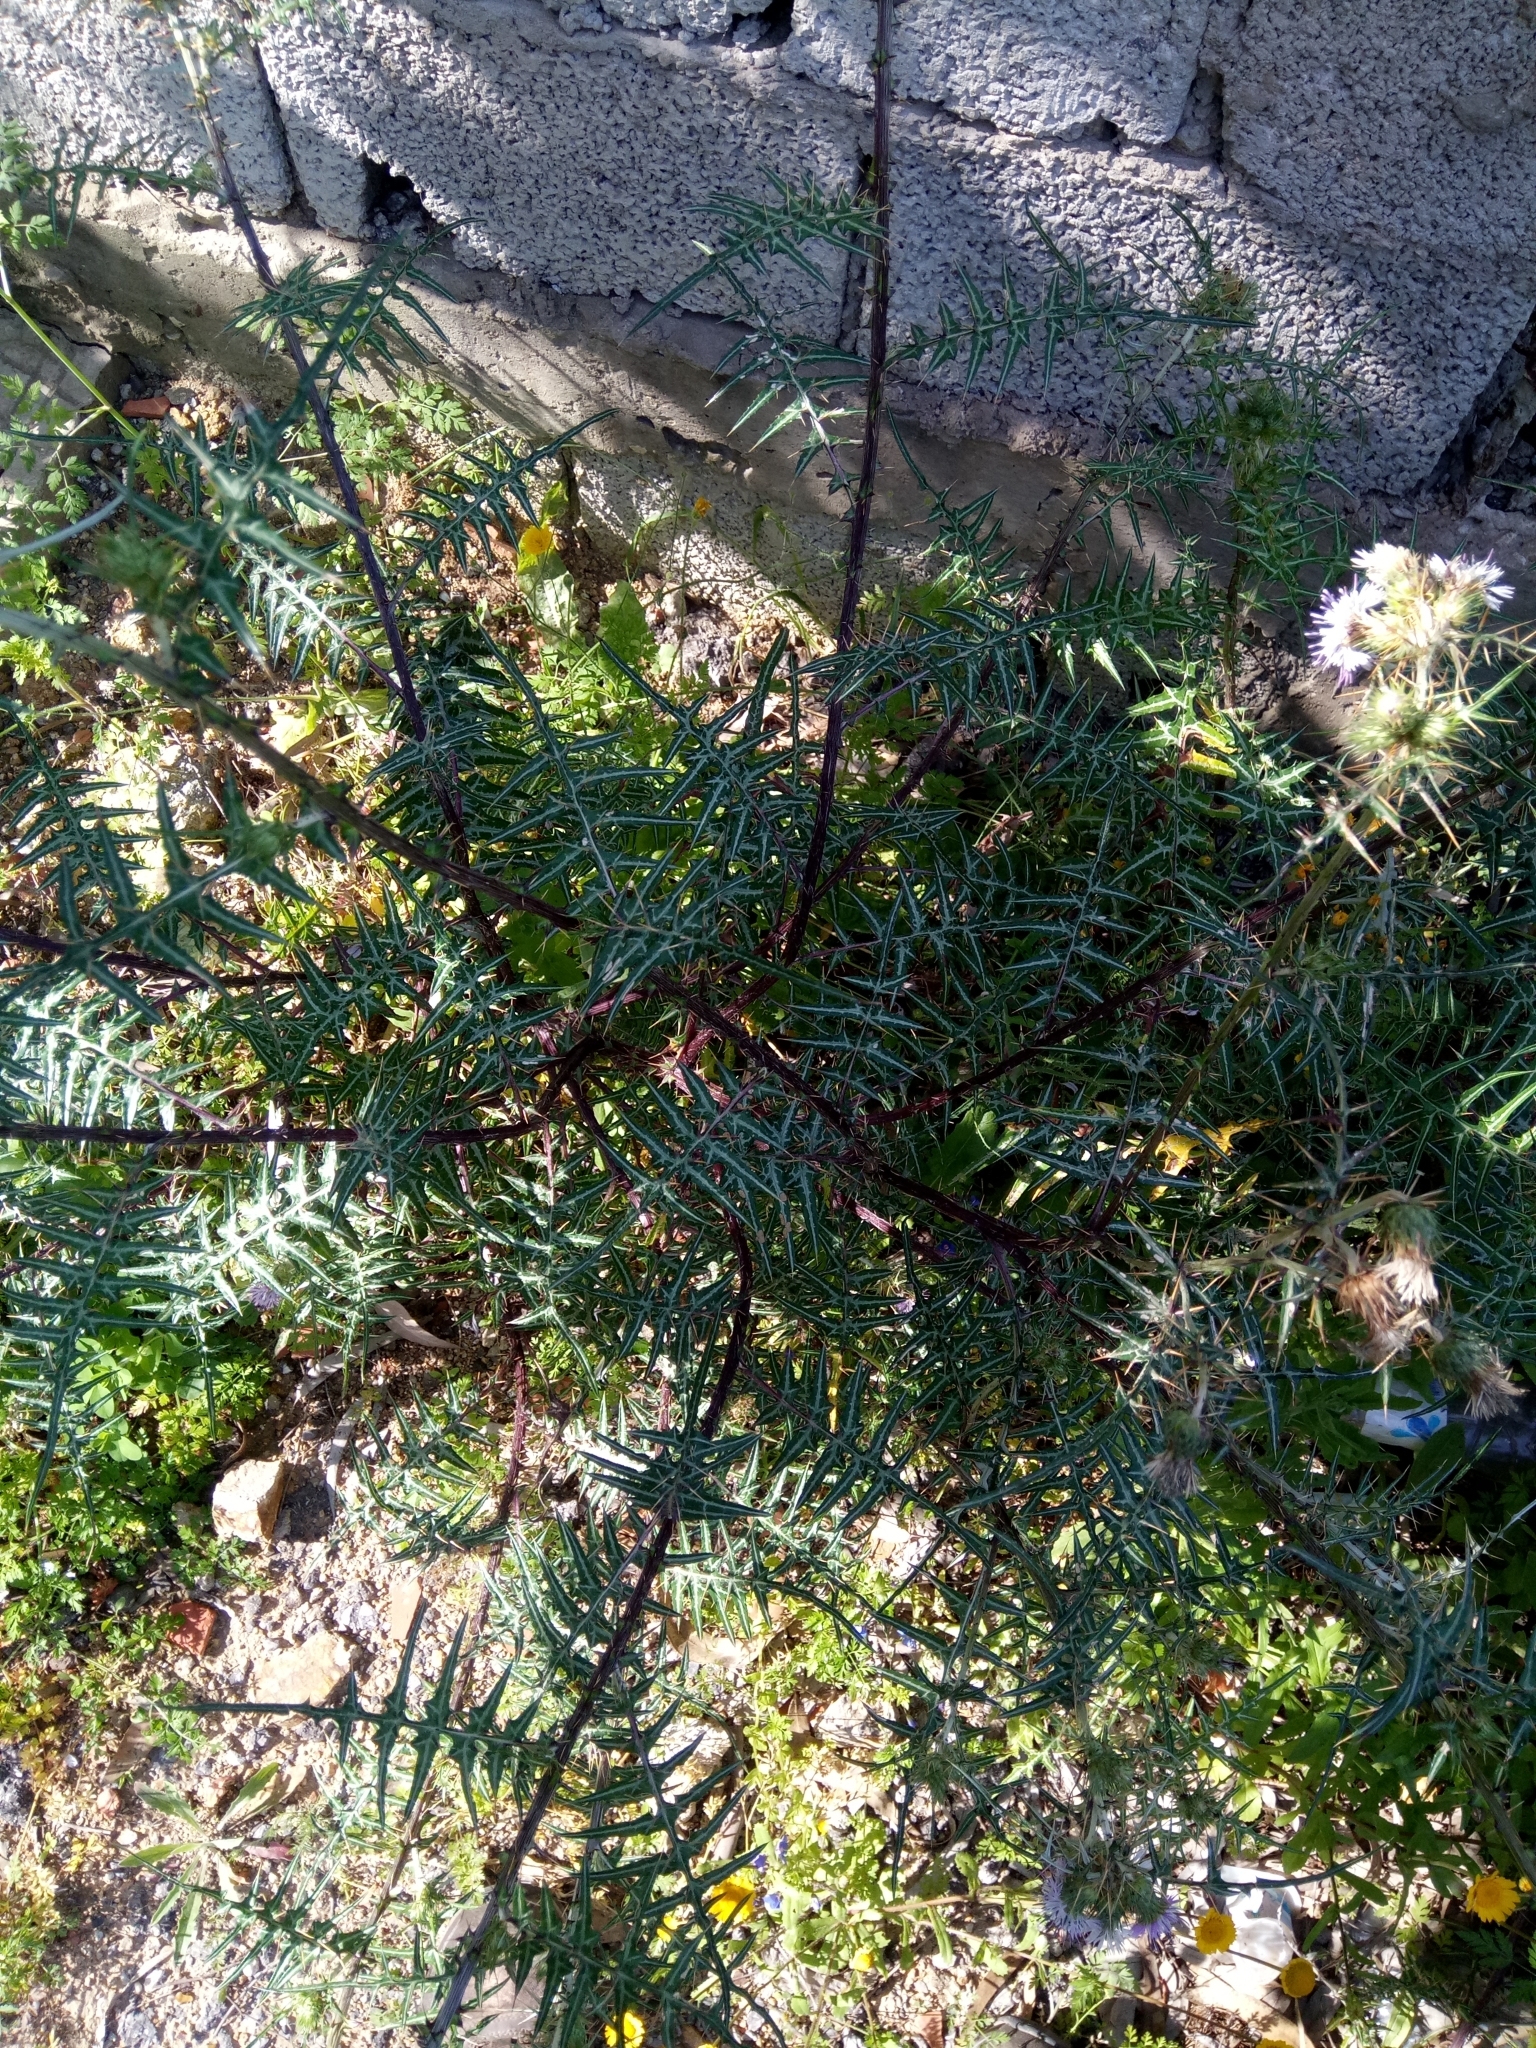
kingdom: Plantae
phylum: Tracheophyta
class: Magnoliopsida
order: Asterales
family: Asteraceae
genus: Galactites
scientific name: Galactites mutabilis
